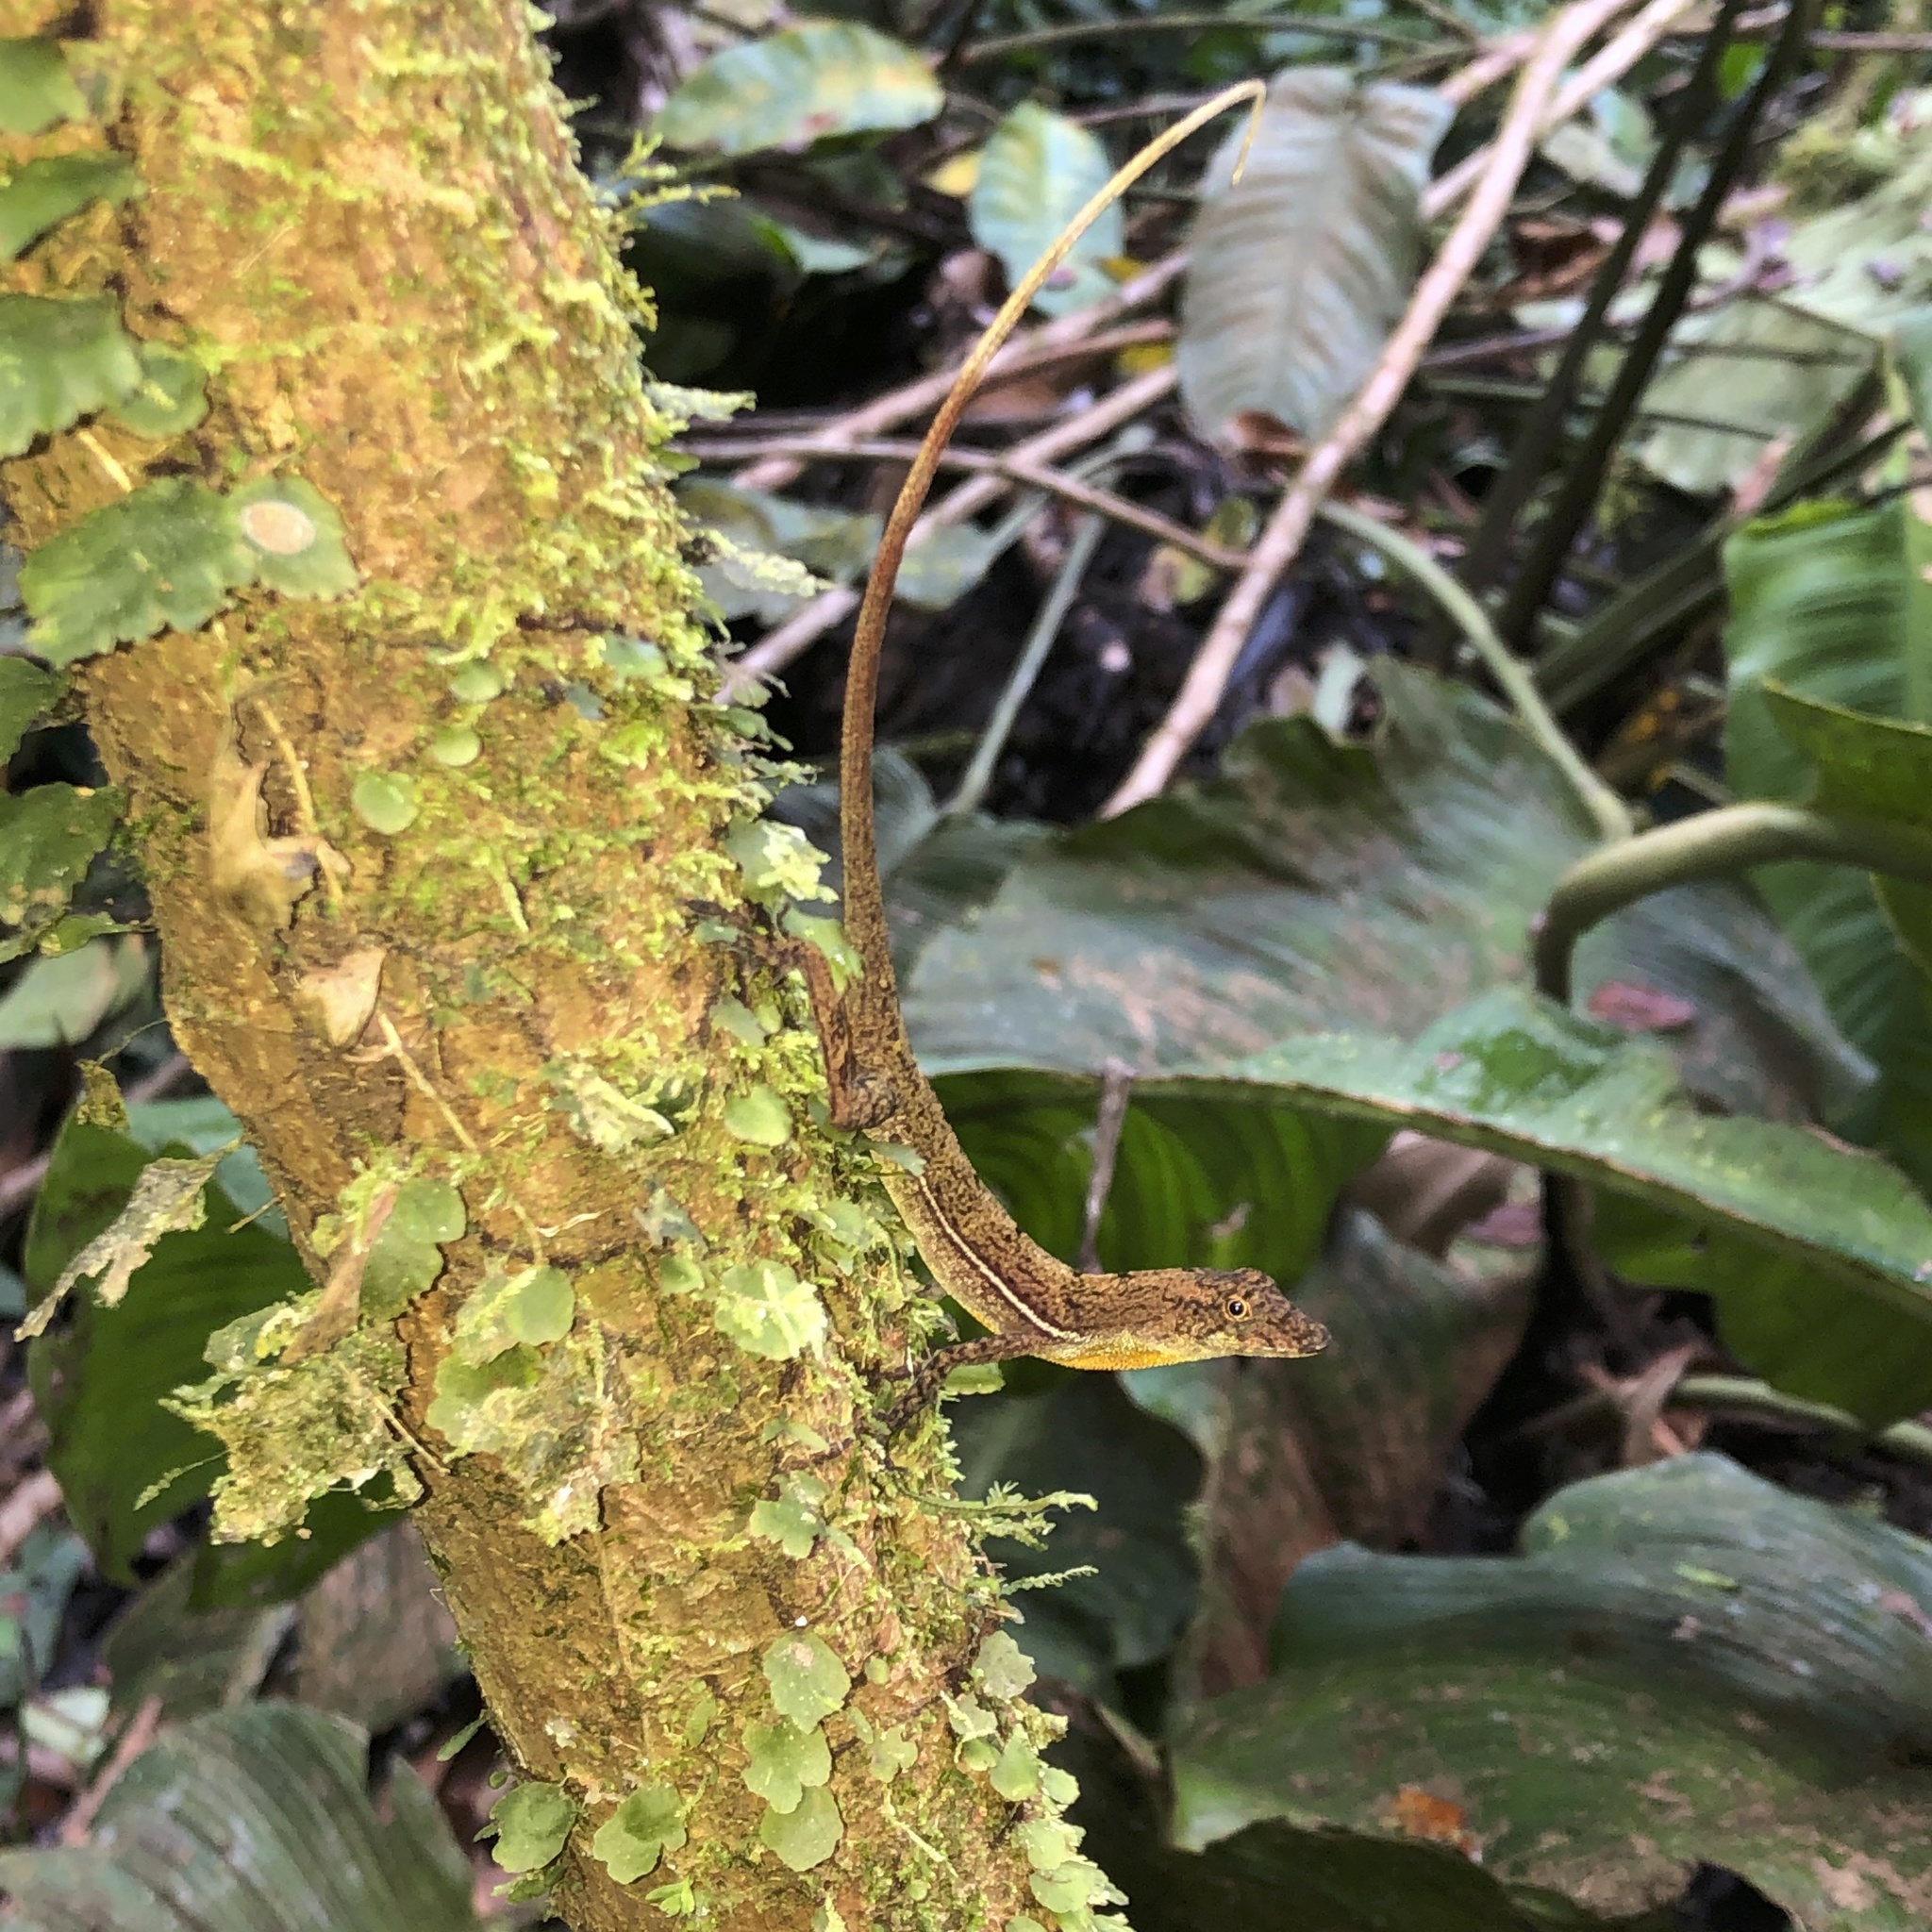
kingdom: Animalia
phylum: Chordata
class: Squamata
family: Dactyloidae
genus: Anolis
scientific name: Anolis polylepis
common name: Many-scaled anole
